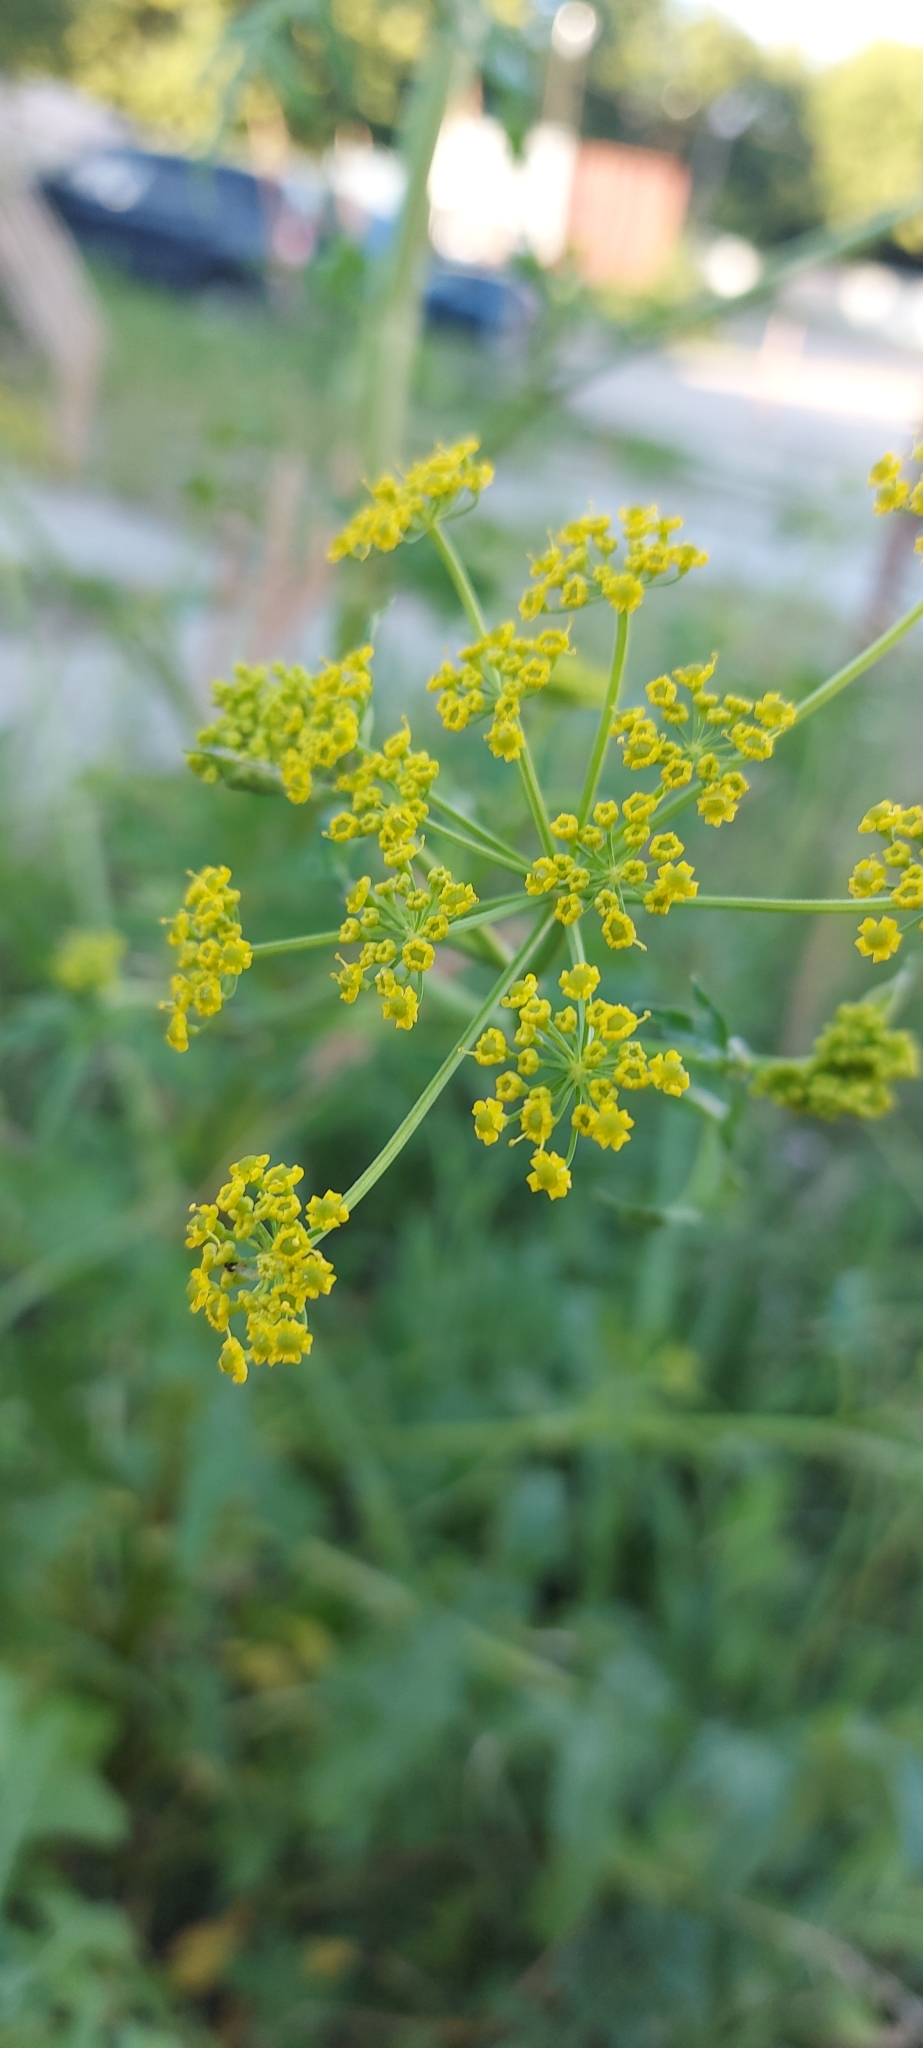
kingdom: Plantae
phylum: Tracheophyta
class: Magnoliopsida
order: Apiales
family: Apiaceae
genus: Pastinaca
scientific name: Pastinaca sativa
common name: Wild parsnip
